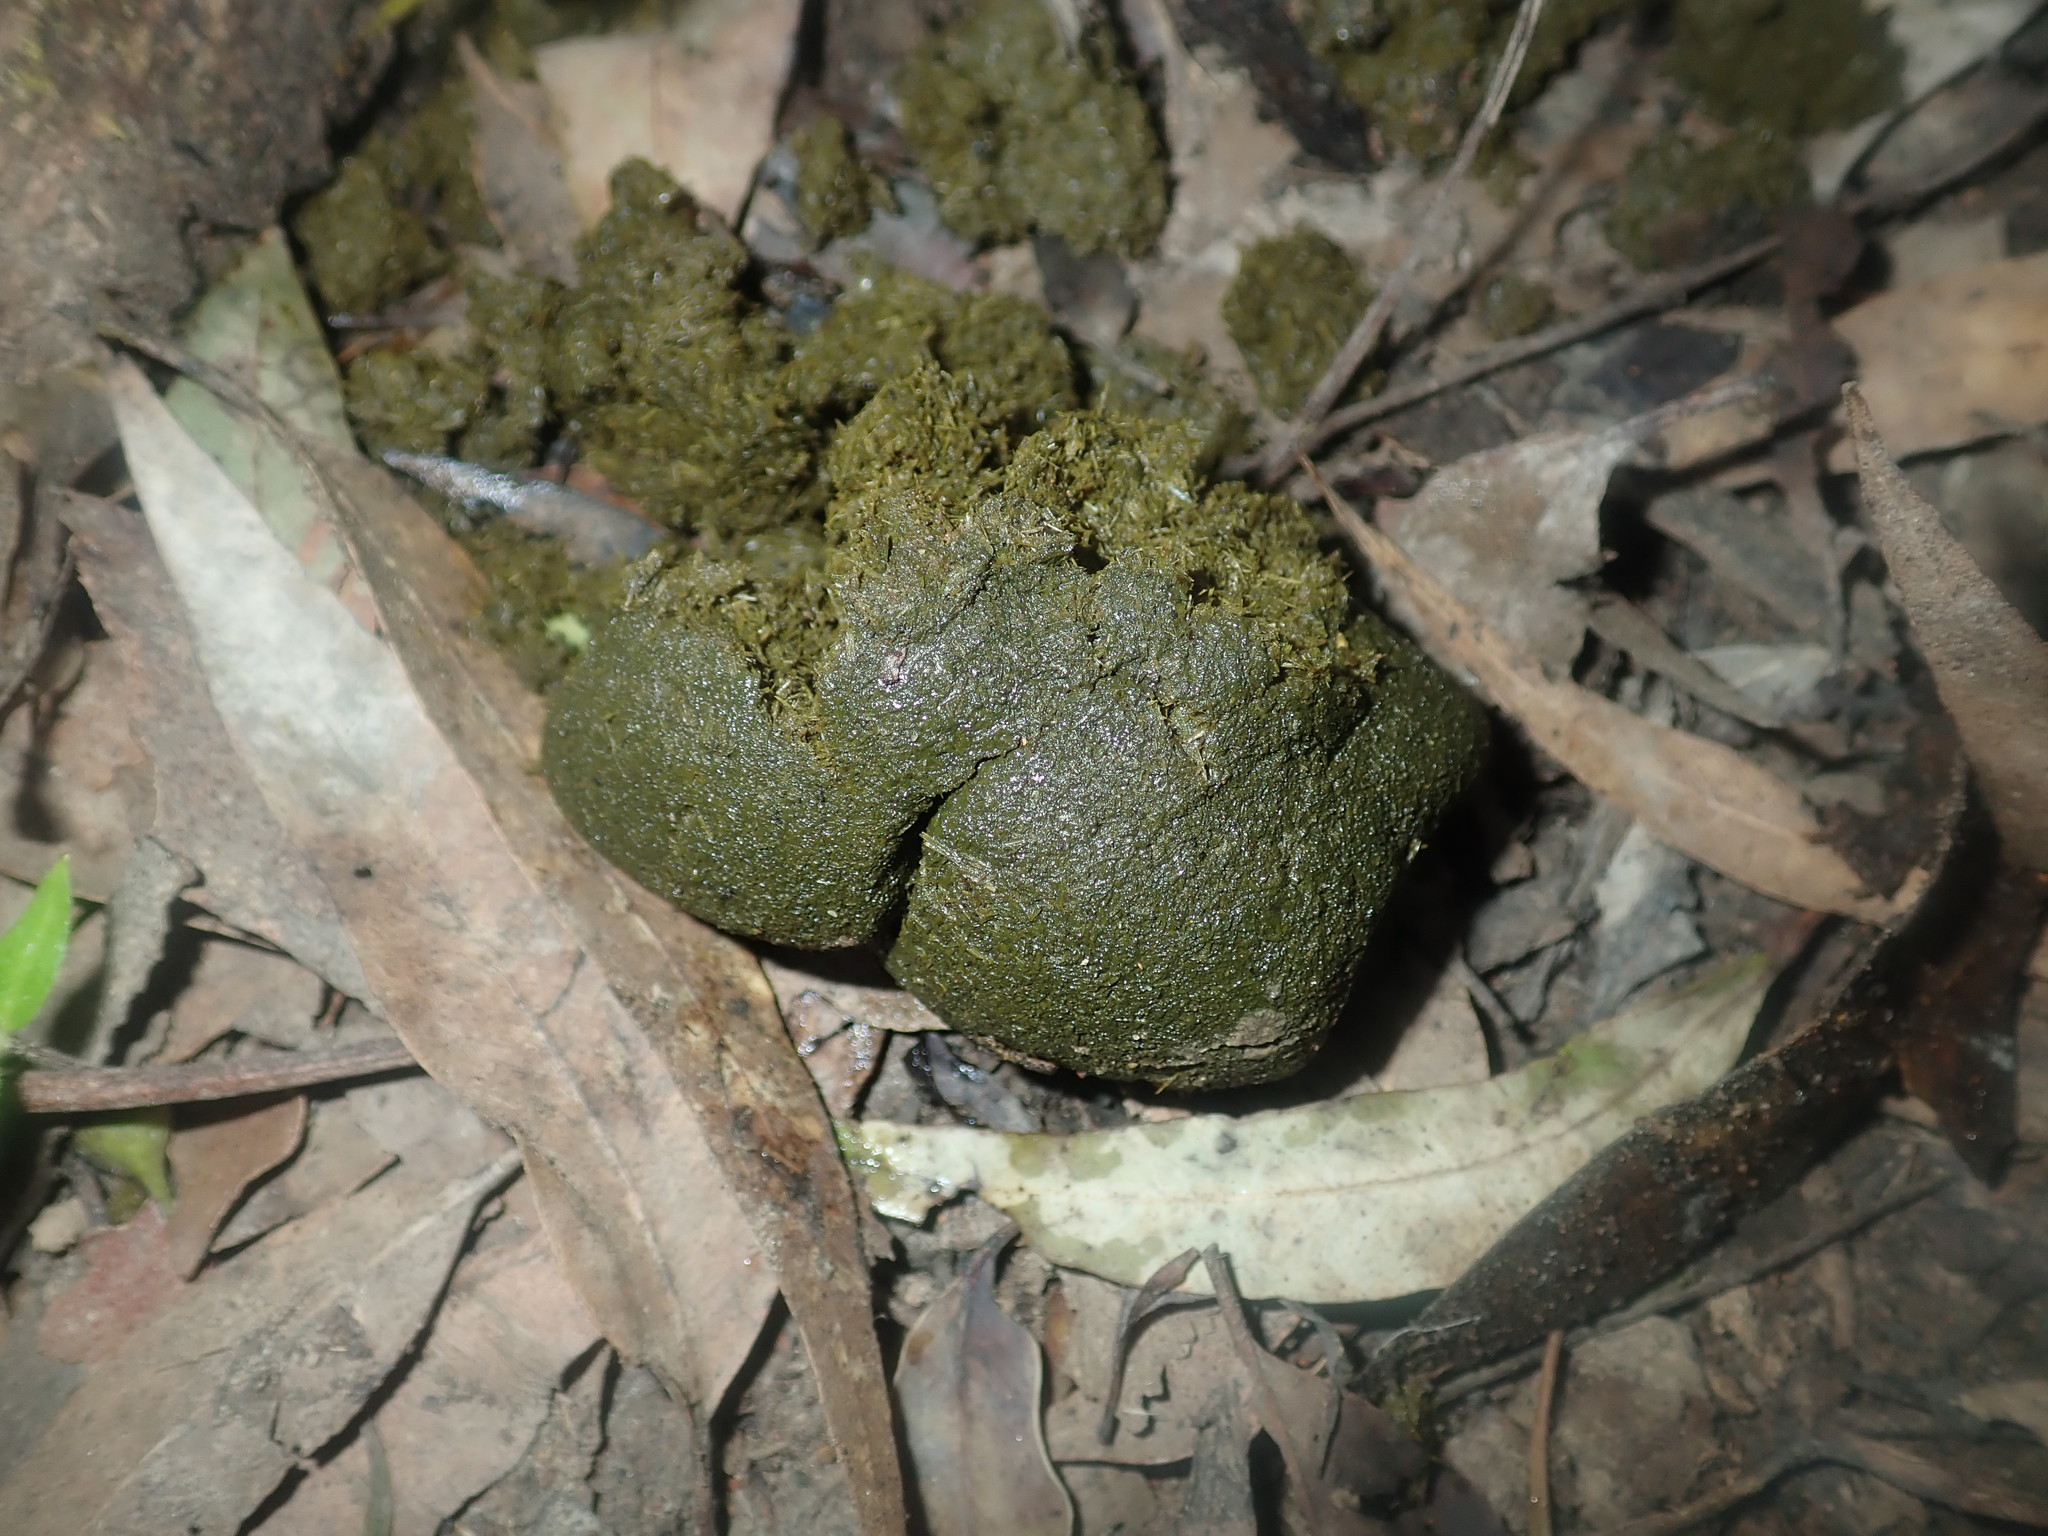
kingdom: Animalia
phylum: Chordata
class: Mammalia
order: Diprotodontia
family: Vombatidae
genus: Vombatus
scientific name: Vombatus ursinus
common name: Common wombat
